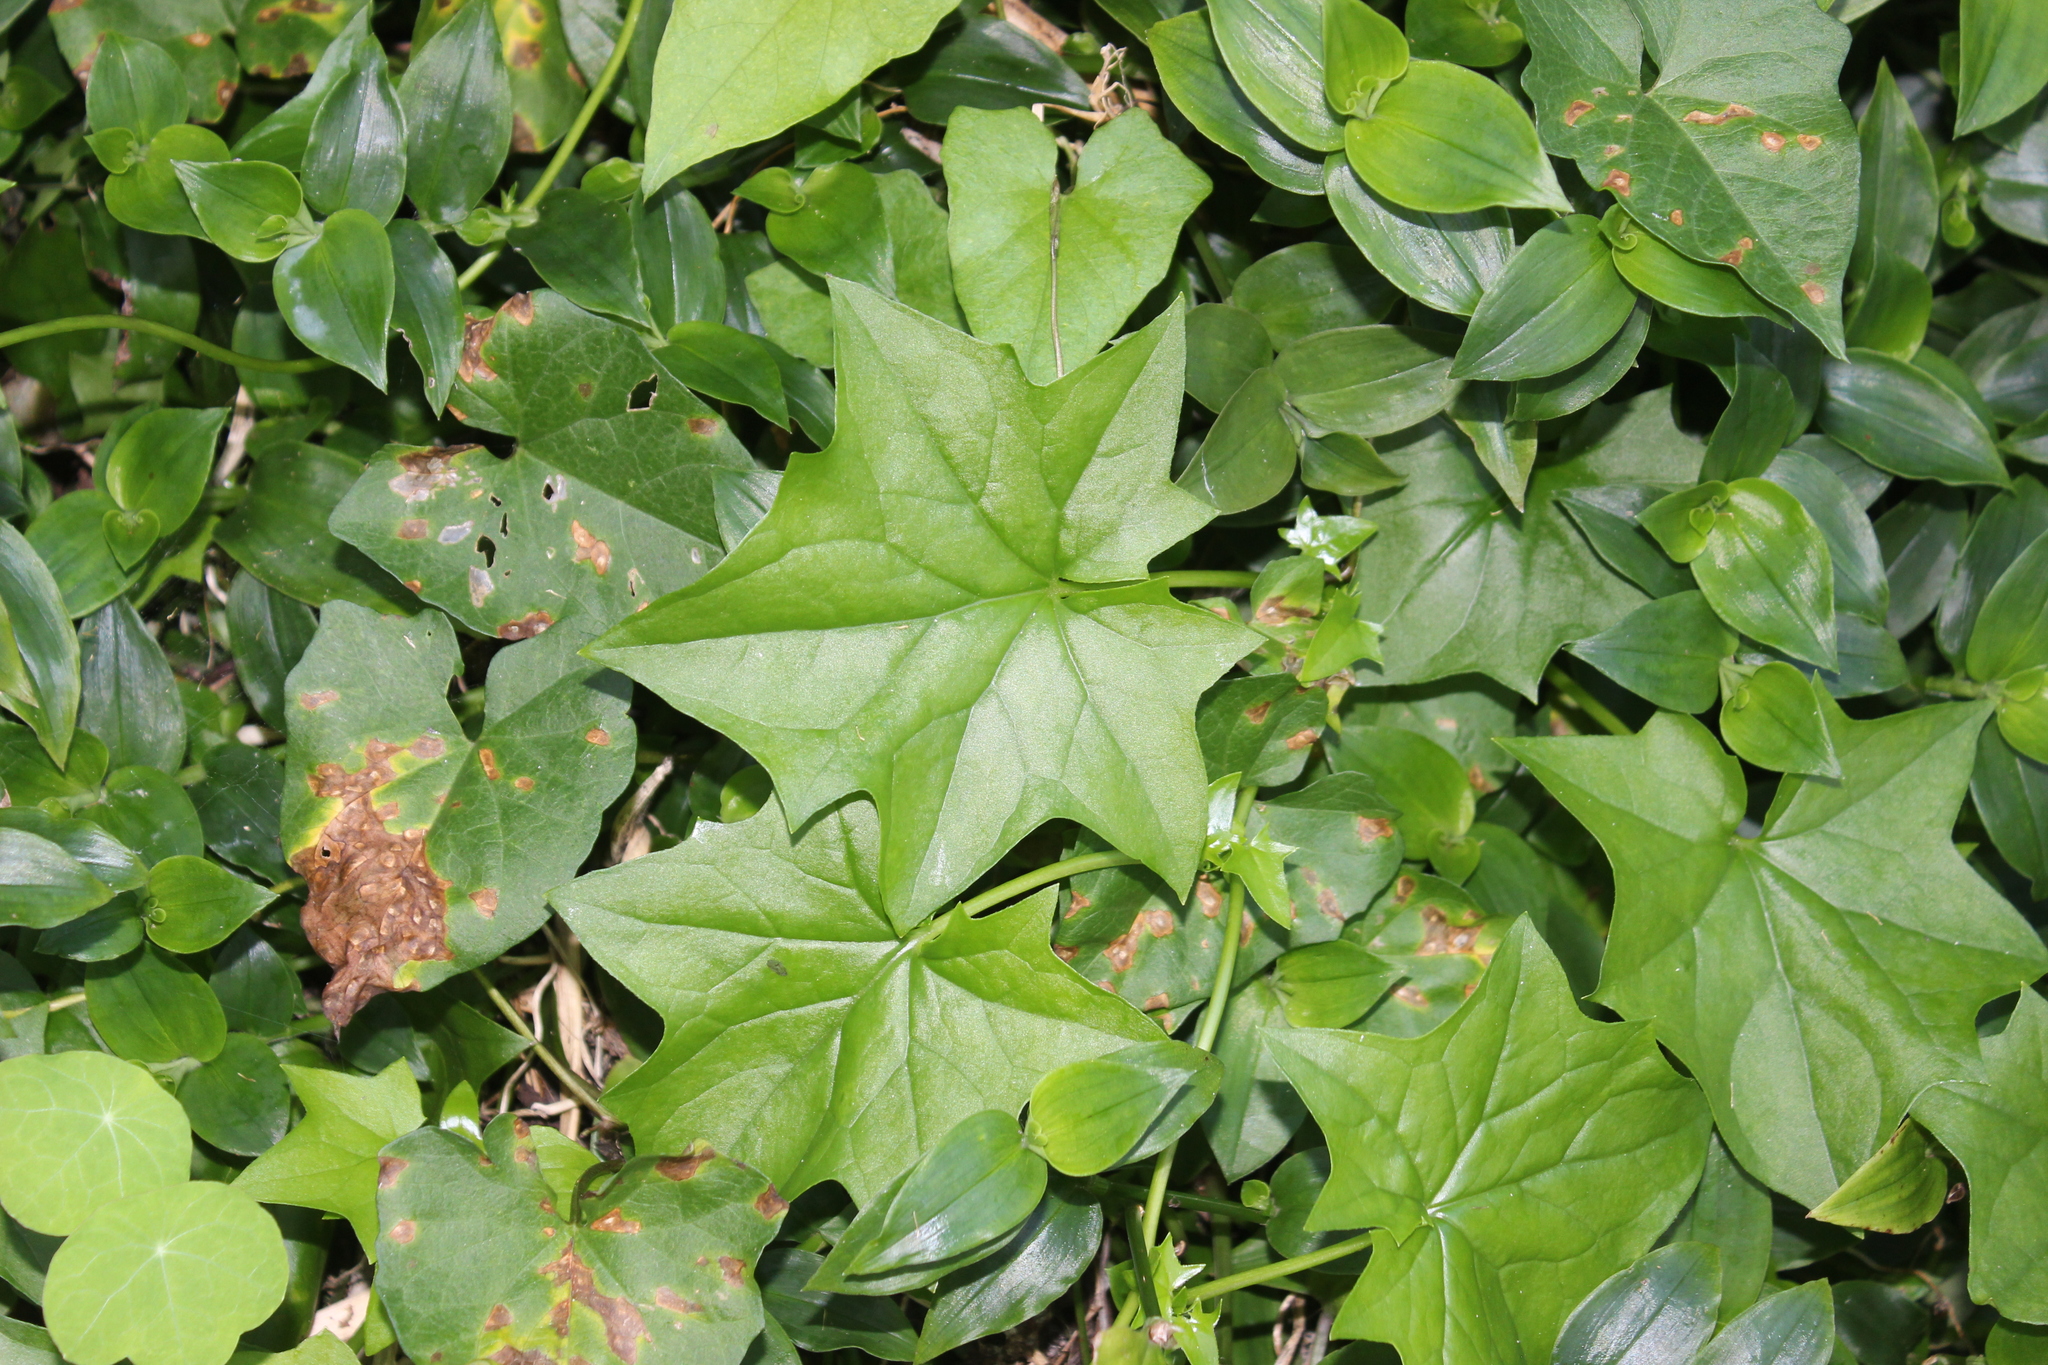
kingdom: Plantae
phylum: Tracheophyta
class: Magnoliopsida
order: Asterales
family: Asteraceae
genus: Delairea
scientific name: Delairea odorata
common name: Cape-ivy
